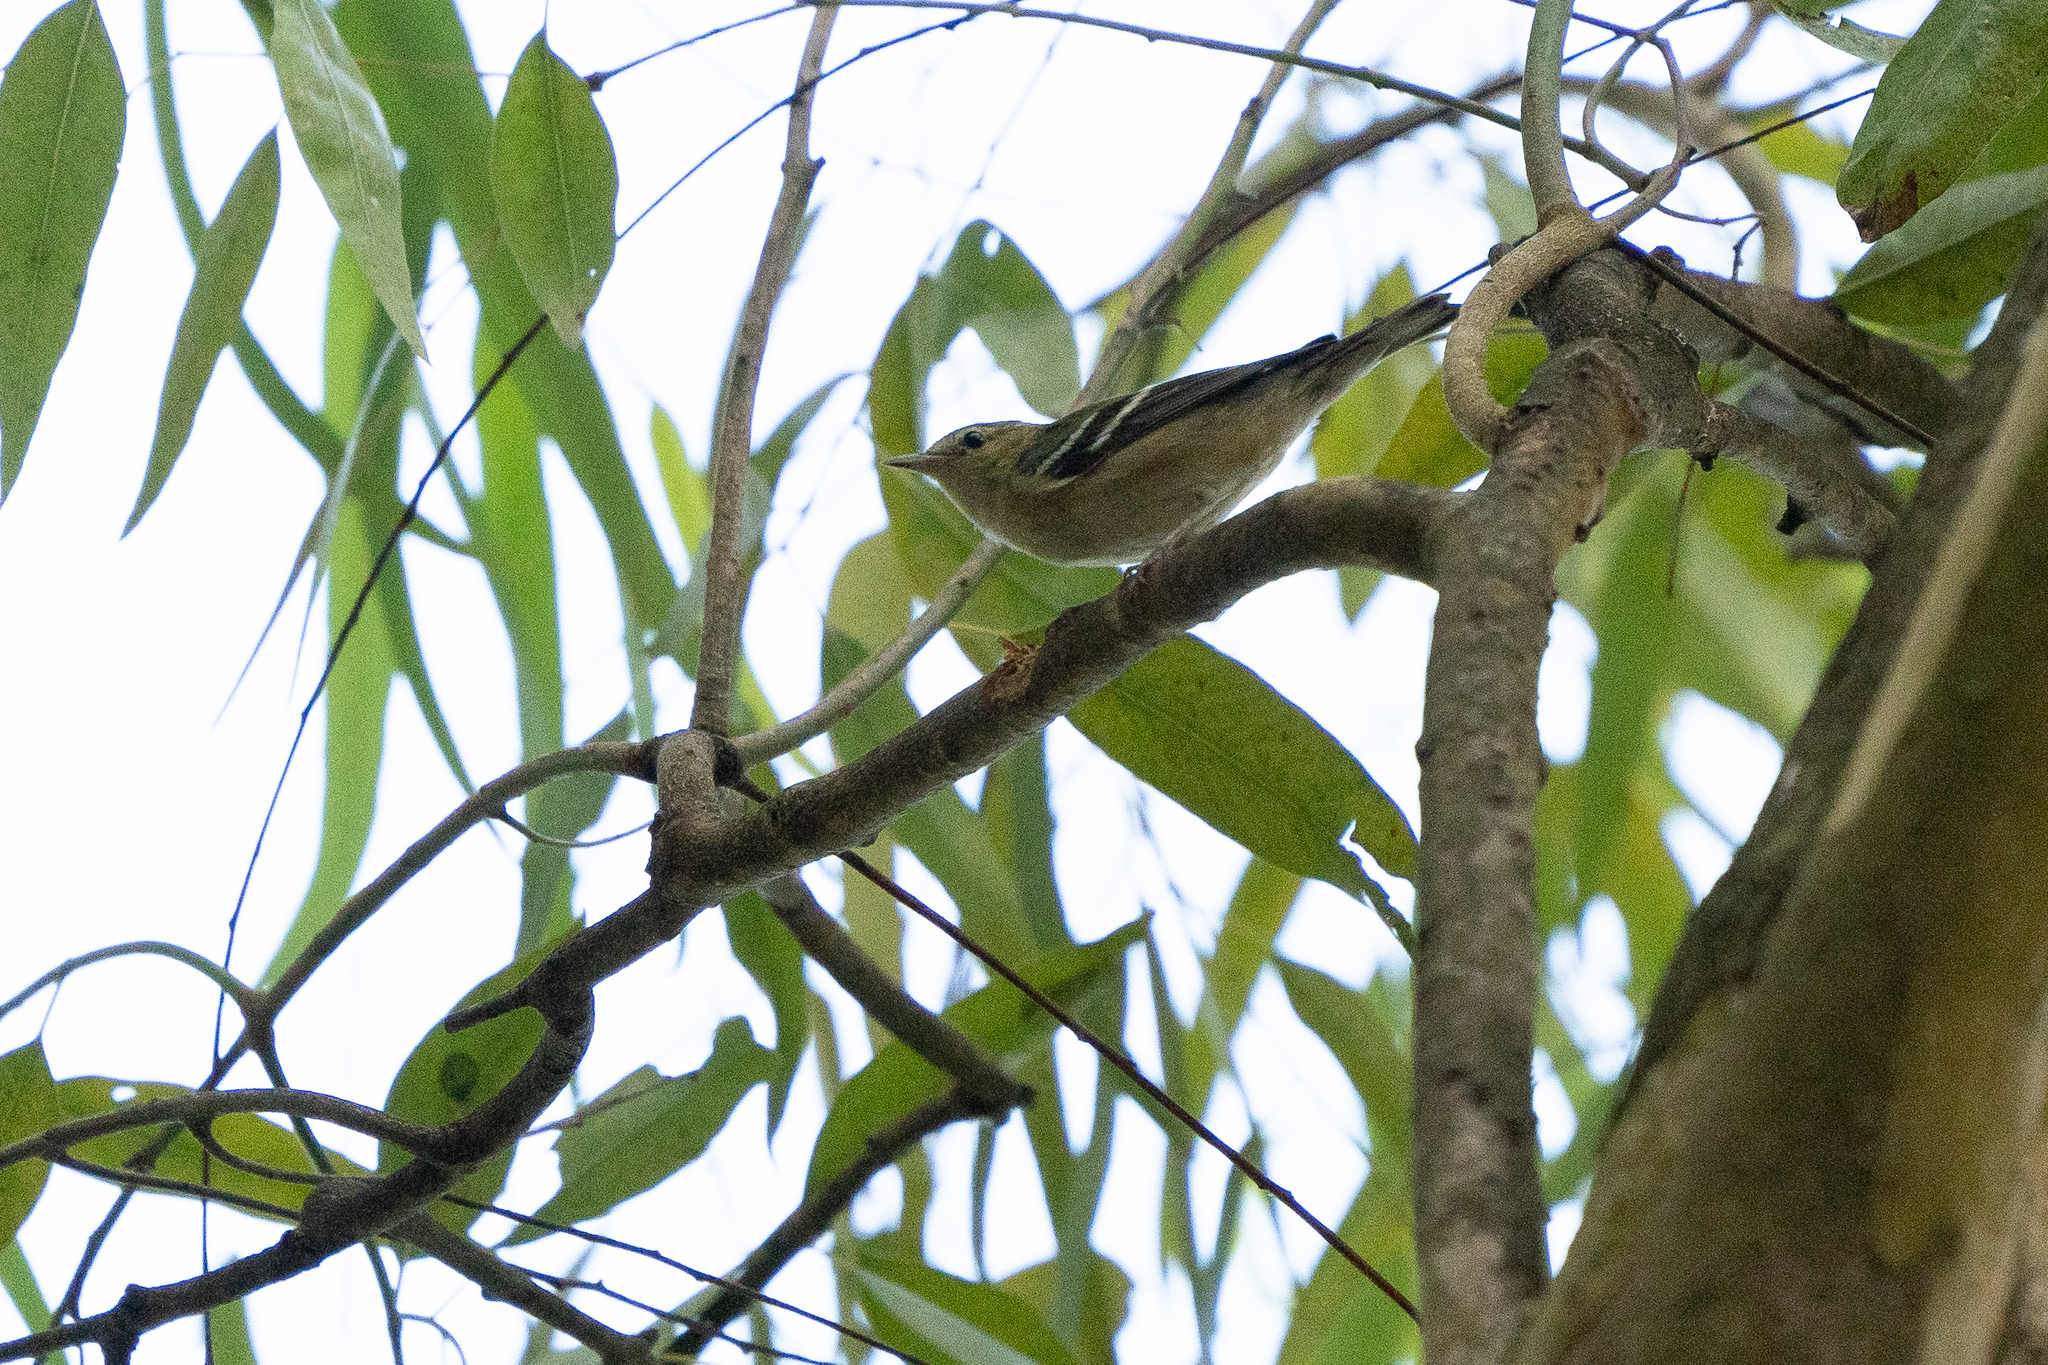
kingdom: Animalia
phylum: Chordata
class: Aves
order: Passeriformes
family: Parulidae
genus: Setophaga
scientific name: Setophaga castanea
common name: Bay-breasted warbler
